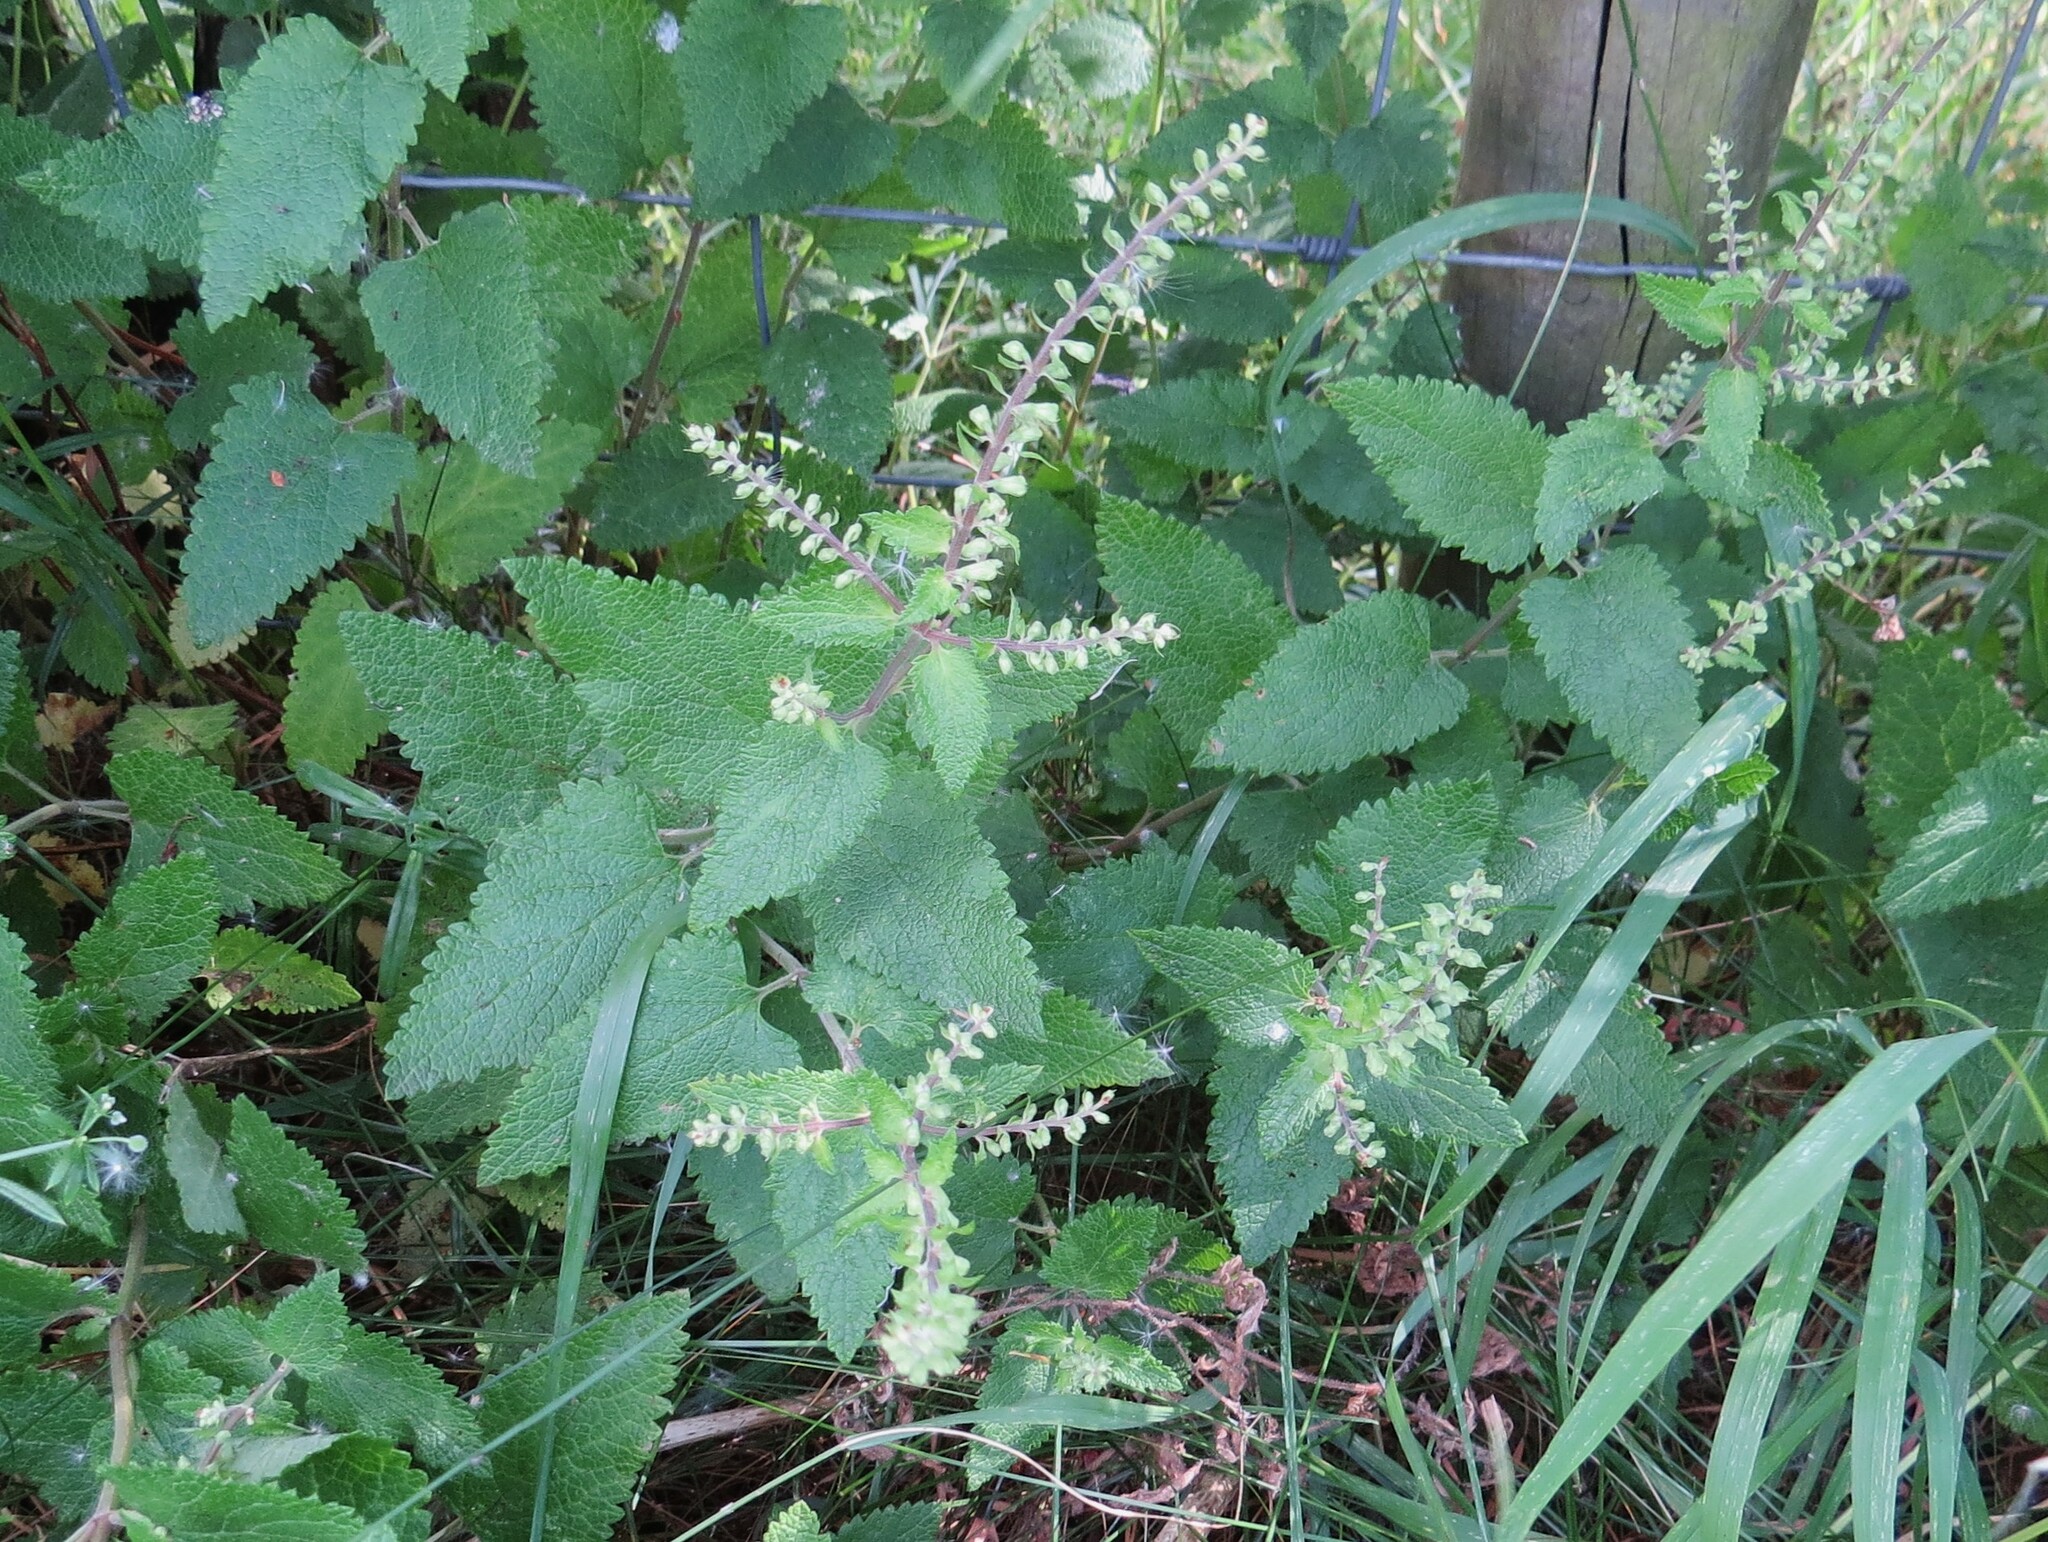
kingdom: Plantae
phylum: Tracheophyta
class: Magnoliopsida
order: Lamiales
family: Lamiaceae
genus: Teucrium
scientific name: Teucrium scorodonia
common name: Woodland germander
